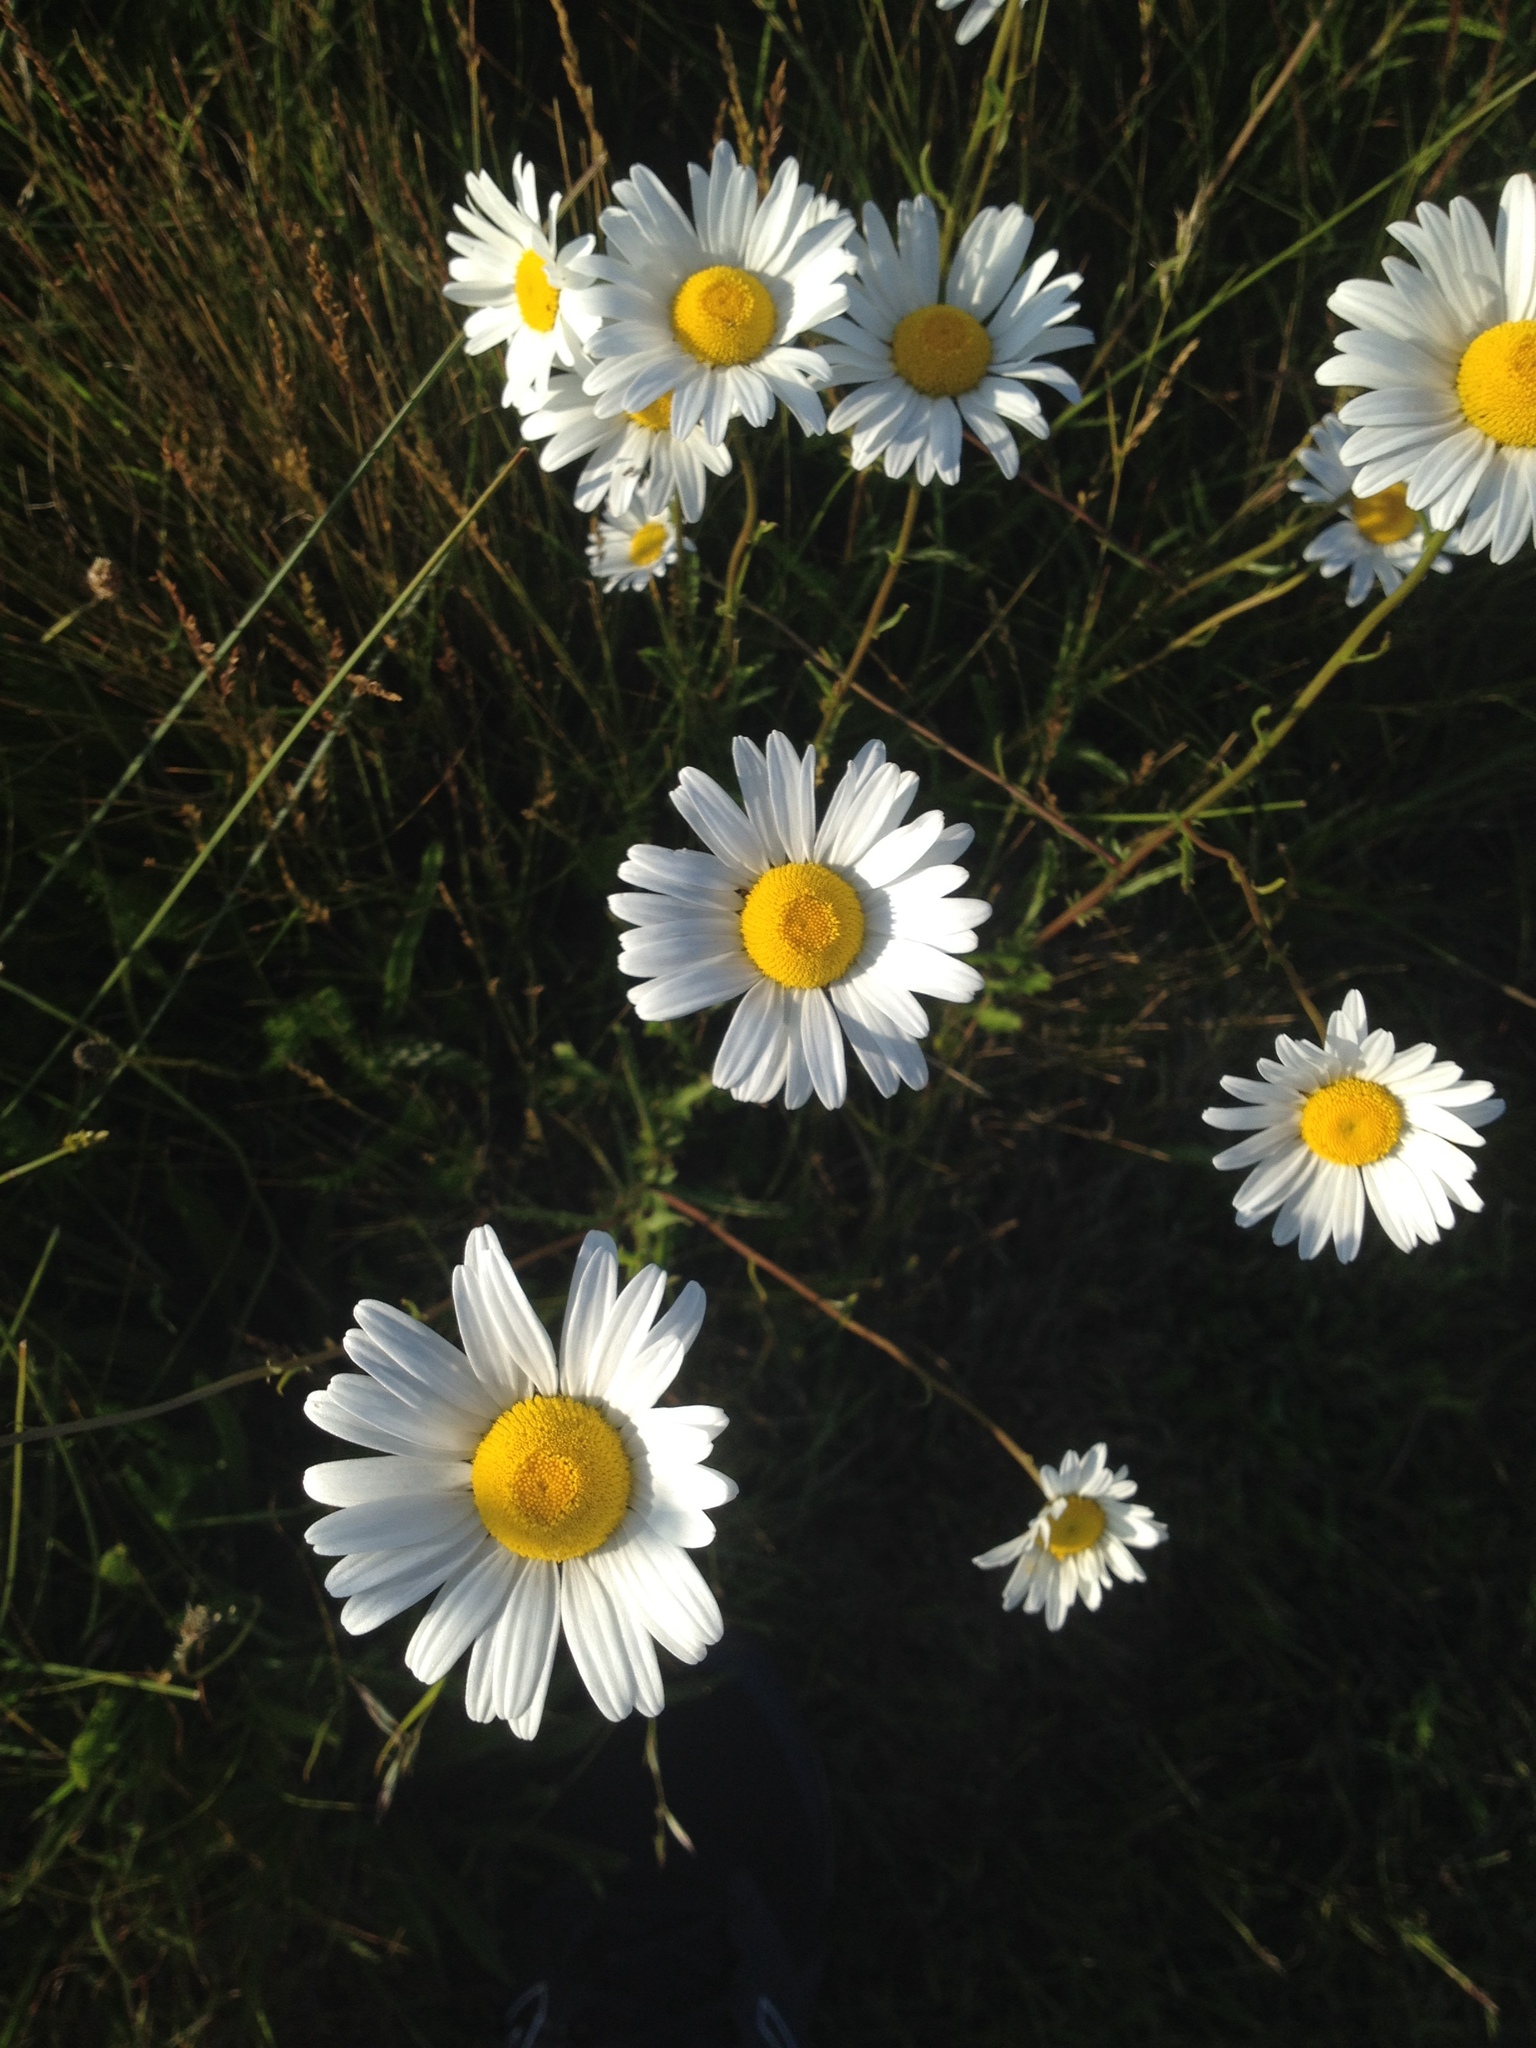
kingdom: Plantae
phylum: Tracheophyta
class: Magnoliopsida
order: Asterales
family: Asteraceae
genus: Leucanthemum
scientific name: Leucanthemum vulgare
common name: Oxeye daisy
